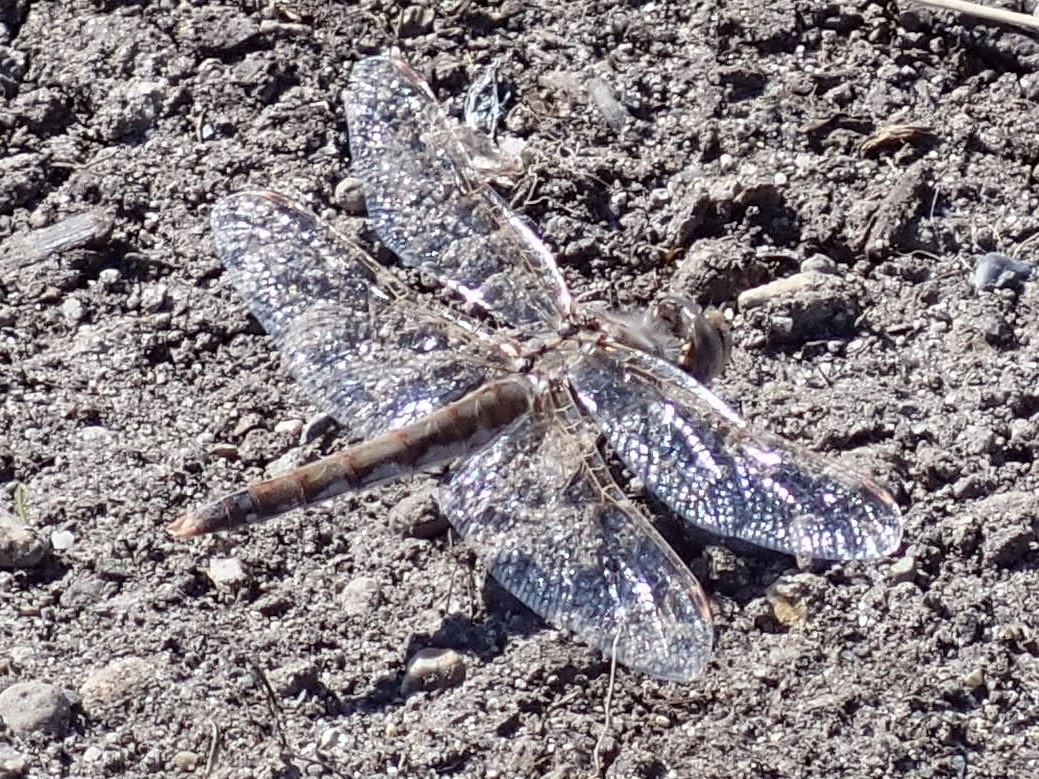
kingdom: Animalia
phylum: Arthropoda
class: Insecta
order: Odonata
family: Libellulidae
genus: Sympetrum
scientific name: Sympetrum corruptum
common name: Variegated meadowhawk
